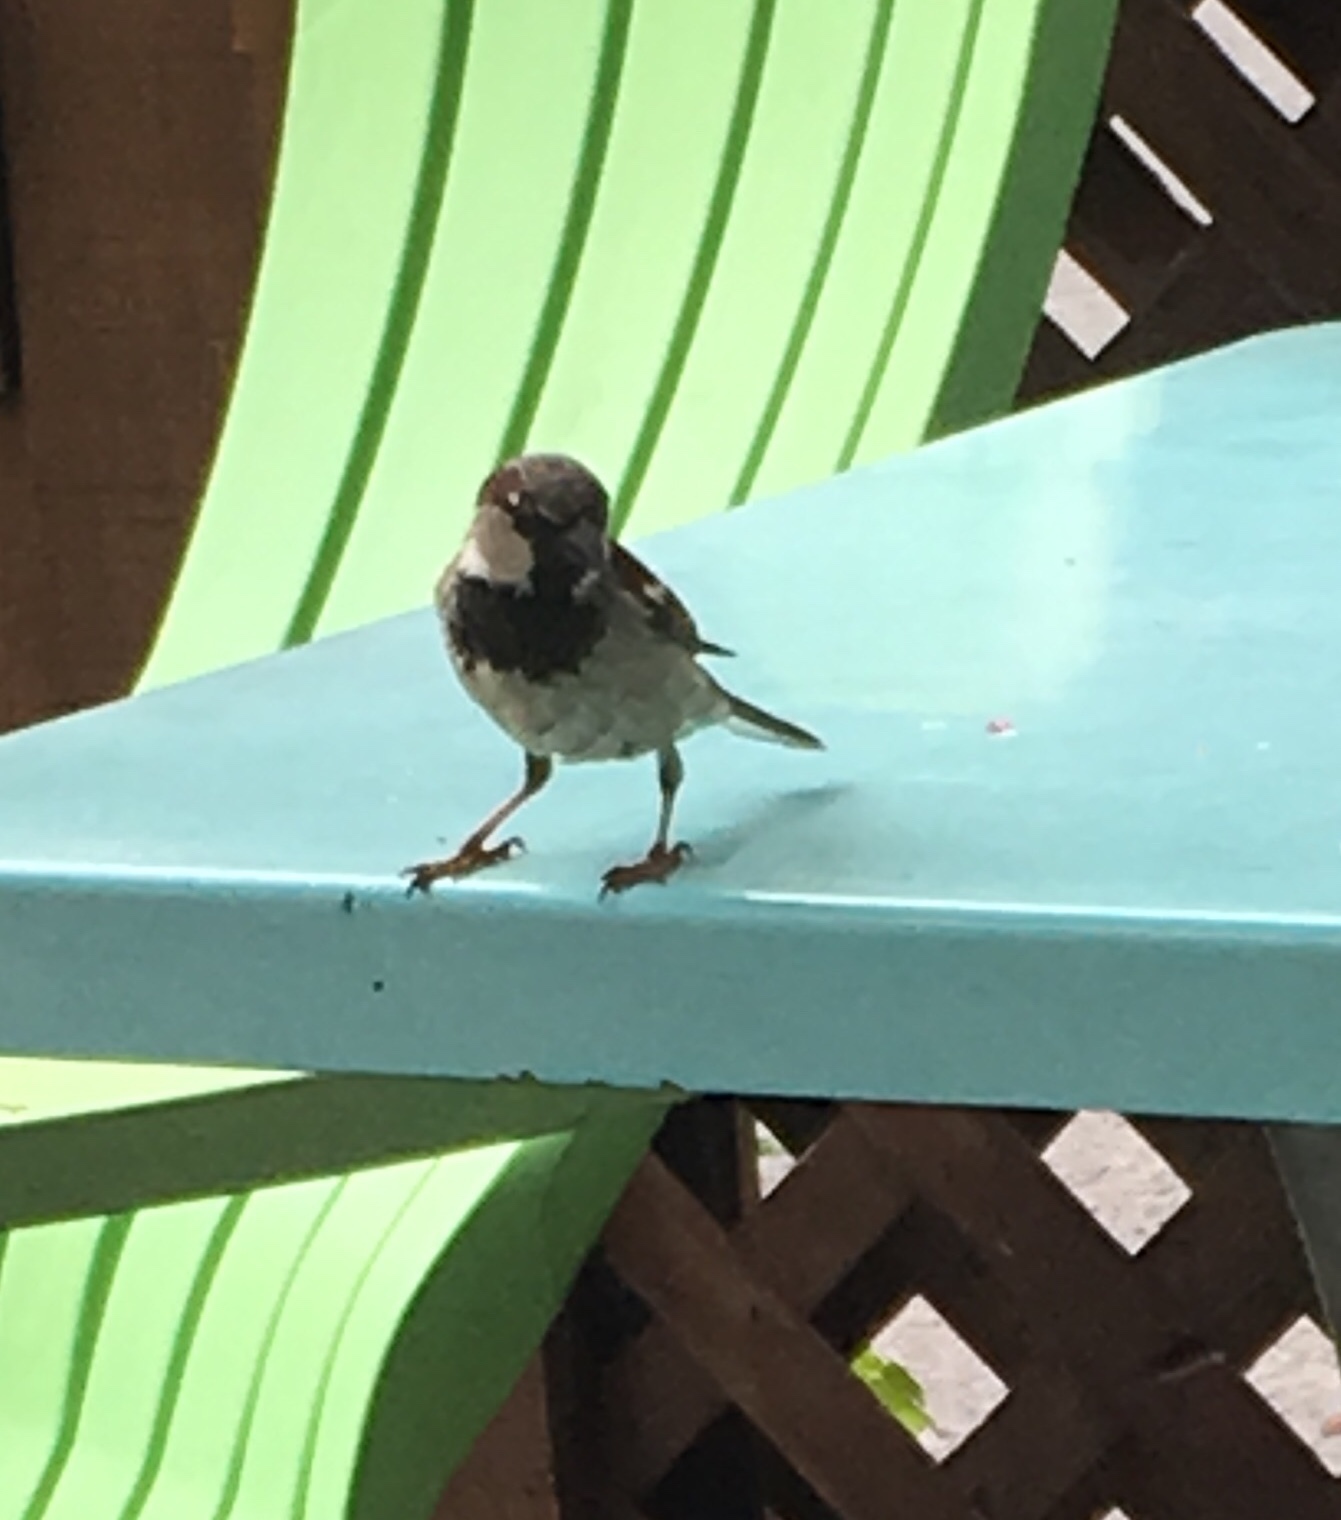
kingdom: Animalia
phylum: Chordata
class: Aves
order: Passeriformes
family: Passeridae
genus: Passer
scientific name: Passer domesticus
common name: House sparrow
